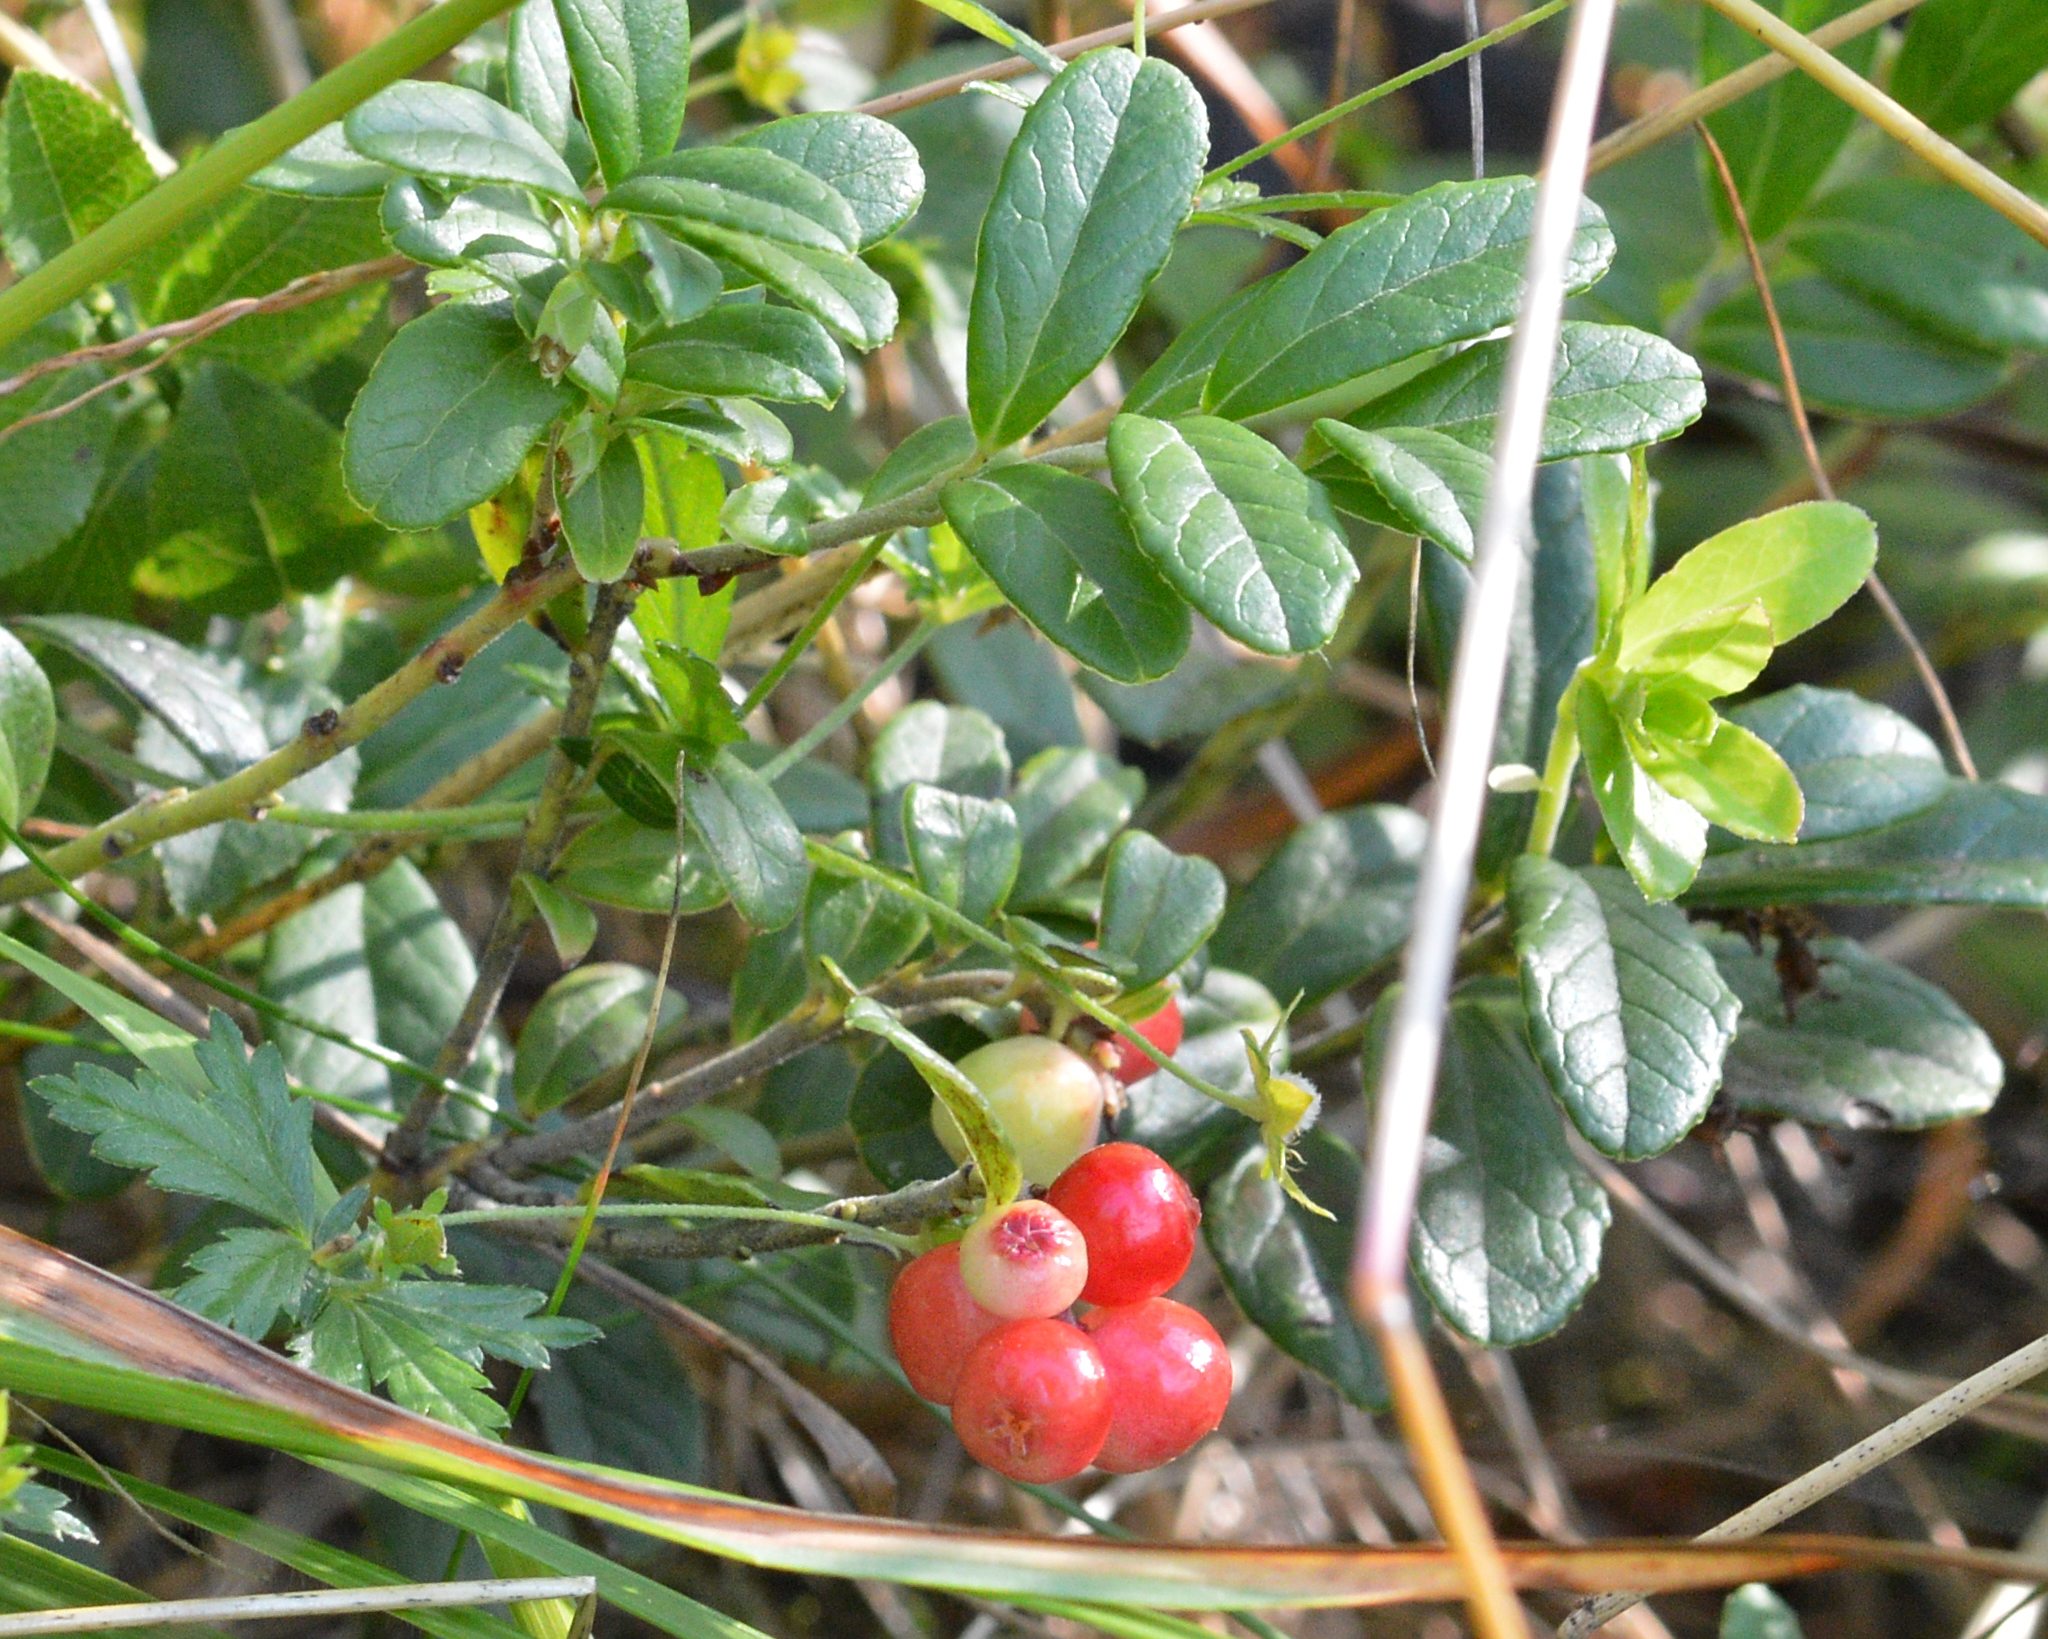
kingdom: Plantae
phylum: Tracheophyta
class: Magnoliopsida
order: Ericales
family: Ericaceae
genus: Vaccinium
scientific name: Vaccinium vitis-idaea
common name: Cowberry
